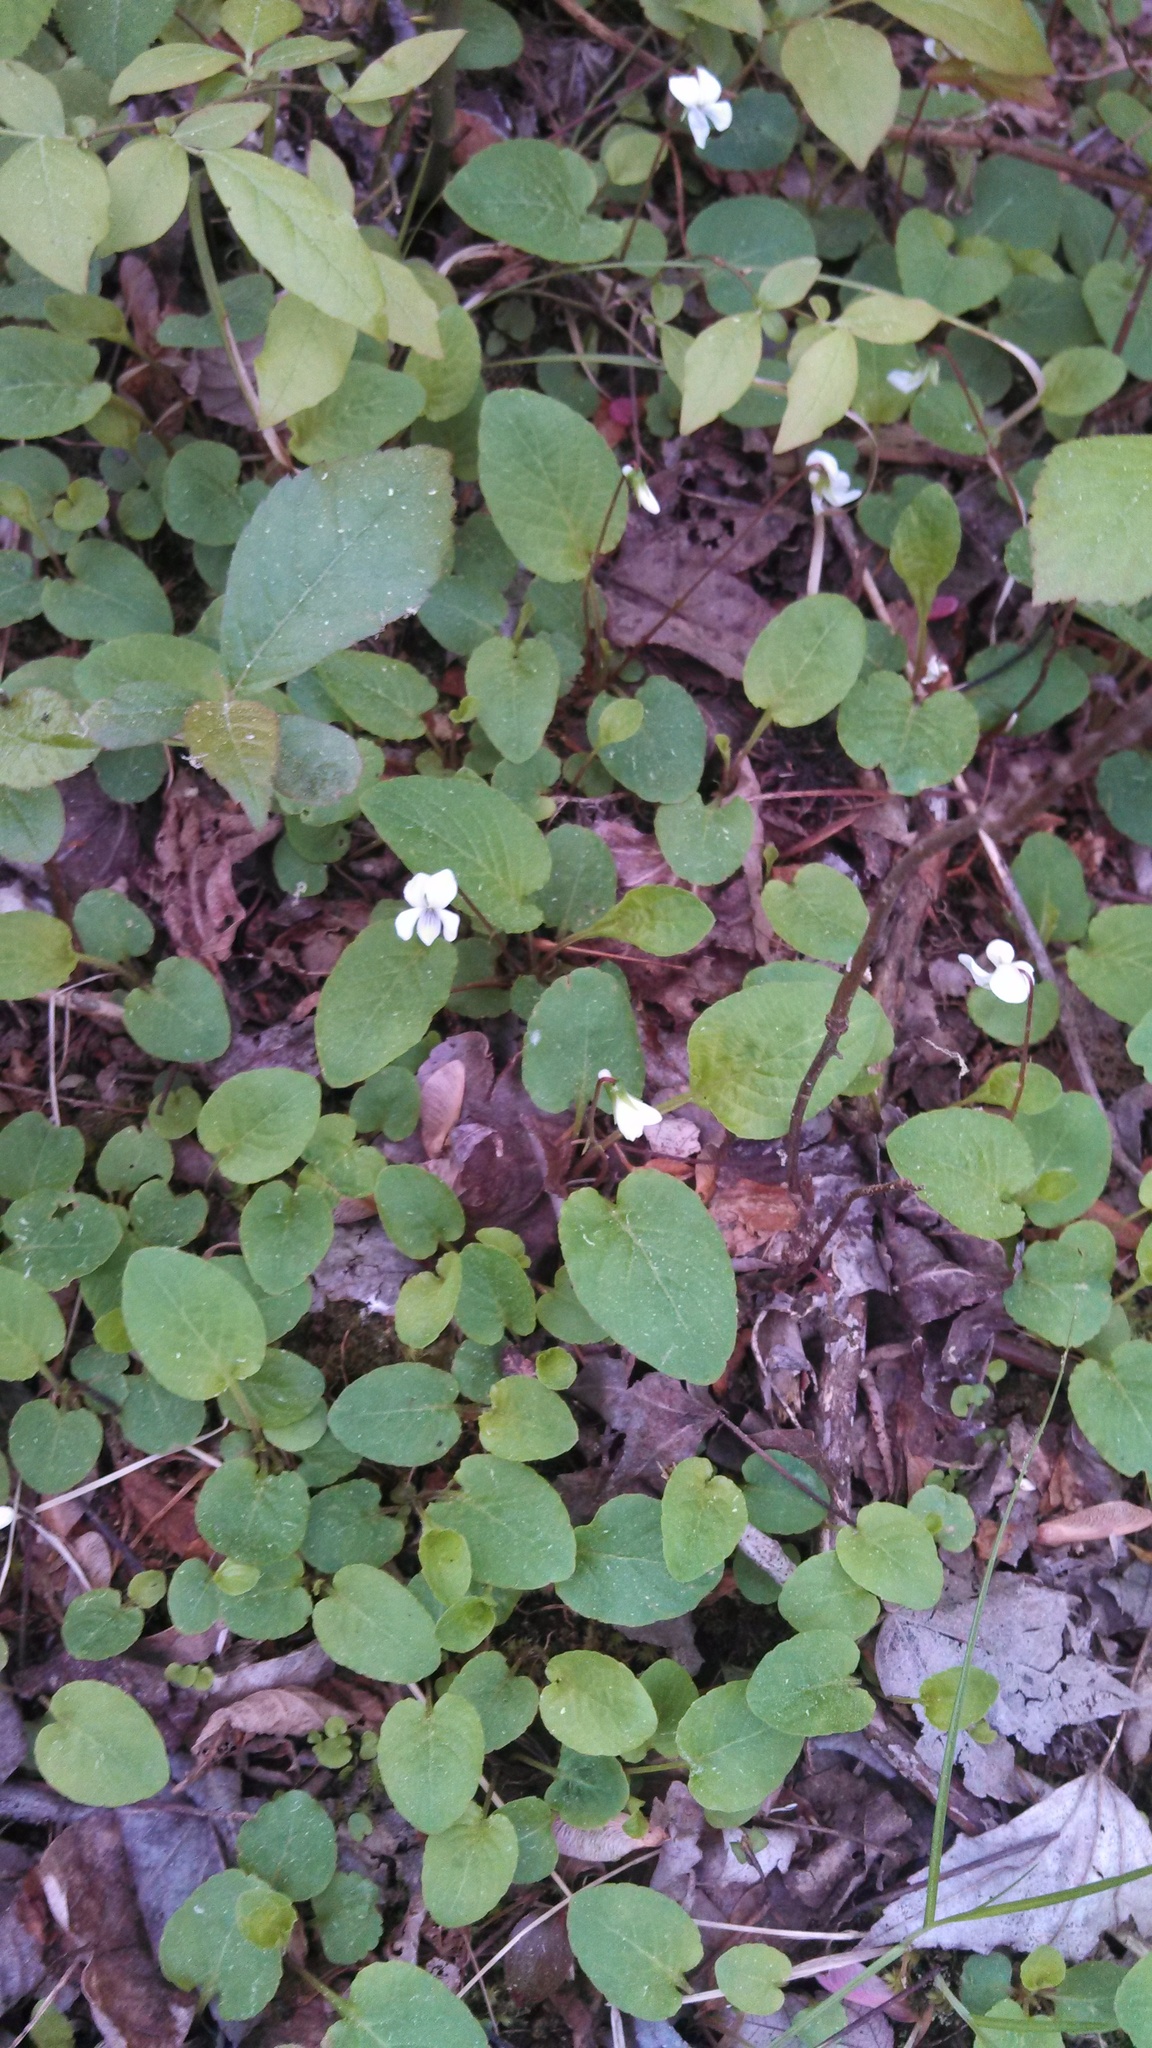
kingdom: Plantae
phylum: Tracheophyta
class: Magnoliopsida
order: Malpighiales
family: Violaceae
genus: Viola
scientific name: Viola primulifolia
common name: Primrose-leaf violet
